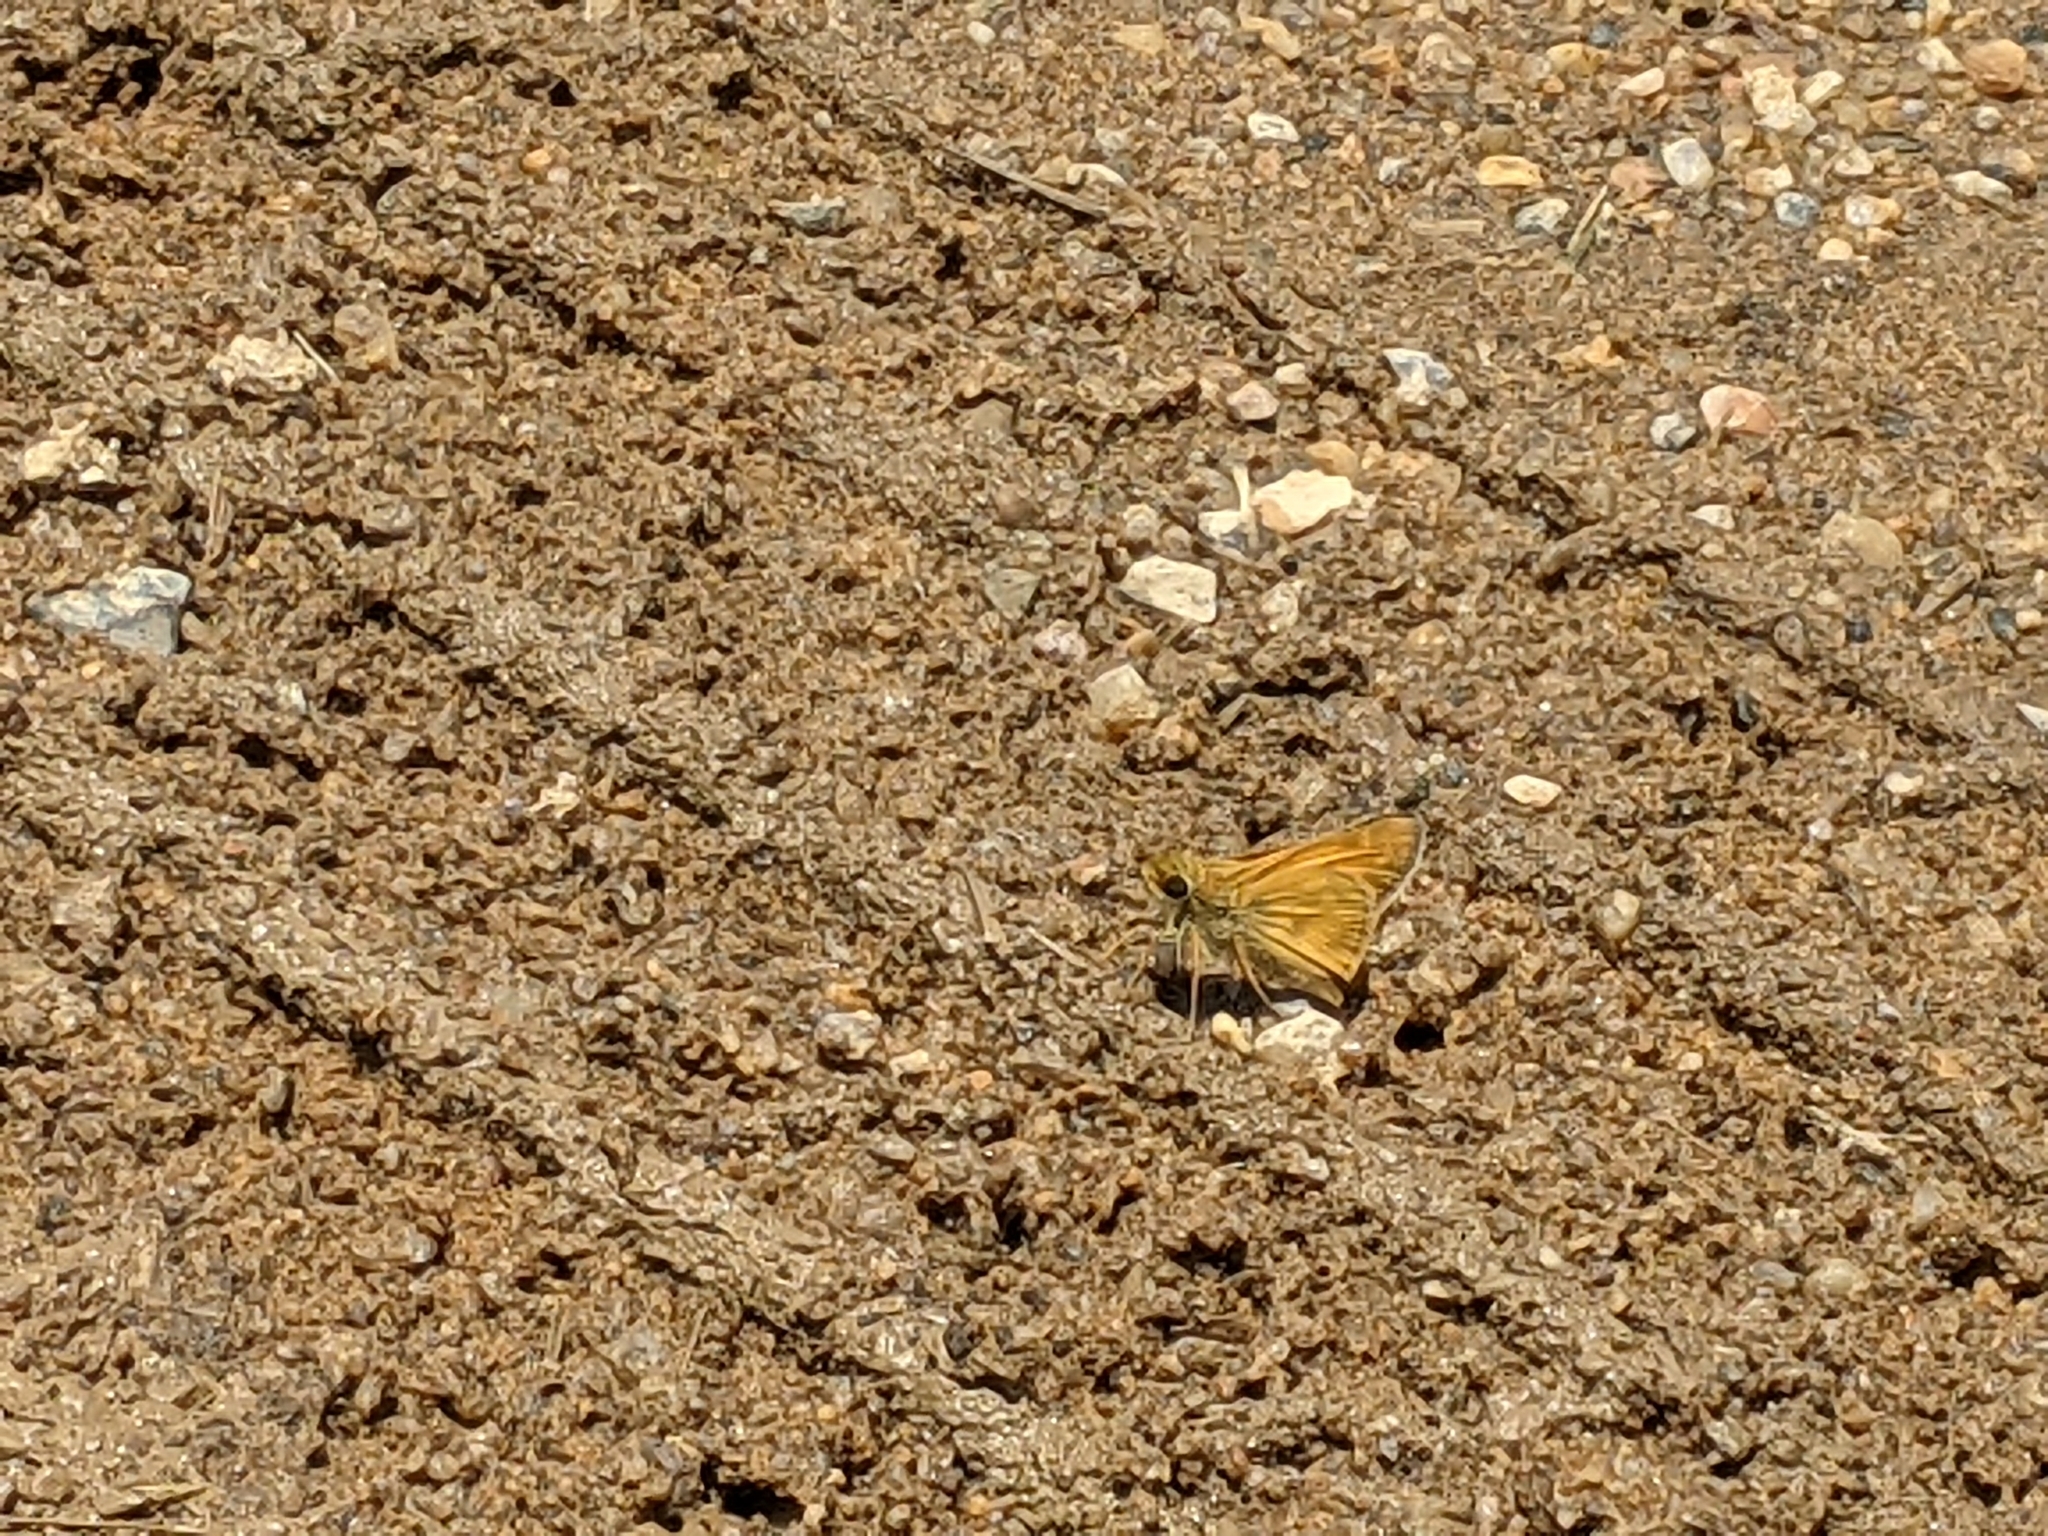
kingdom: Animalia
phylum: Arthropoda
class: Insecta
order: Lepidoptera
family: Hesperiidae
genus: Atalopedes
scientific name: Atalopedes
